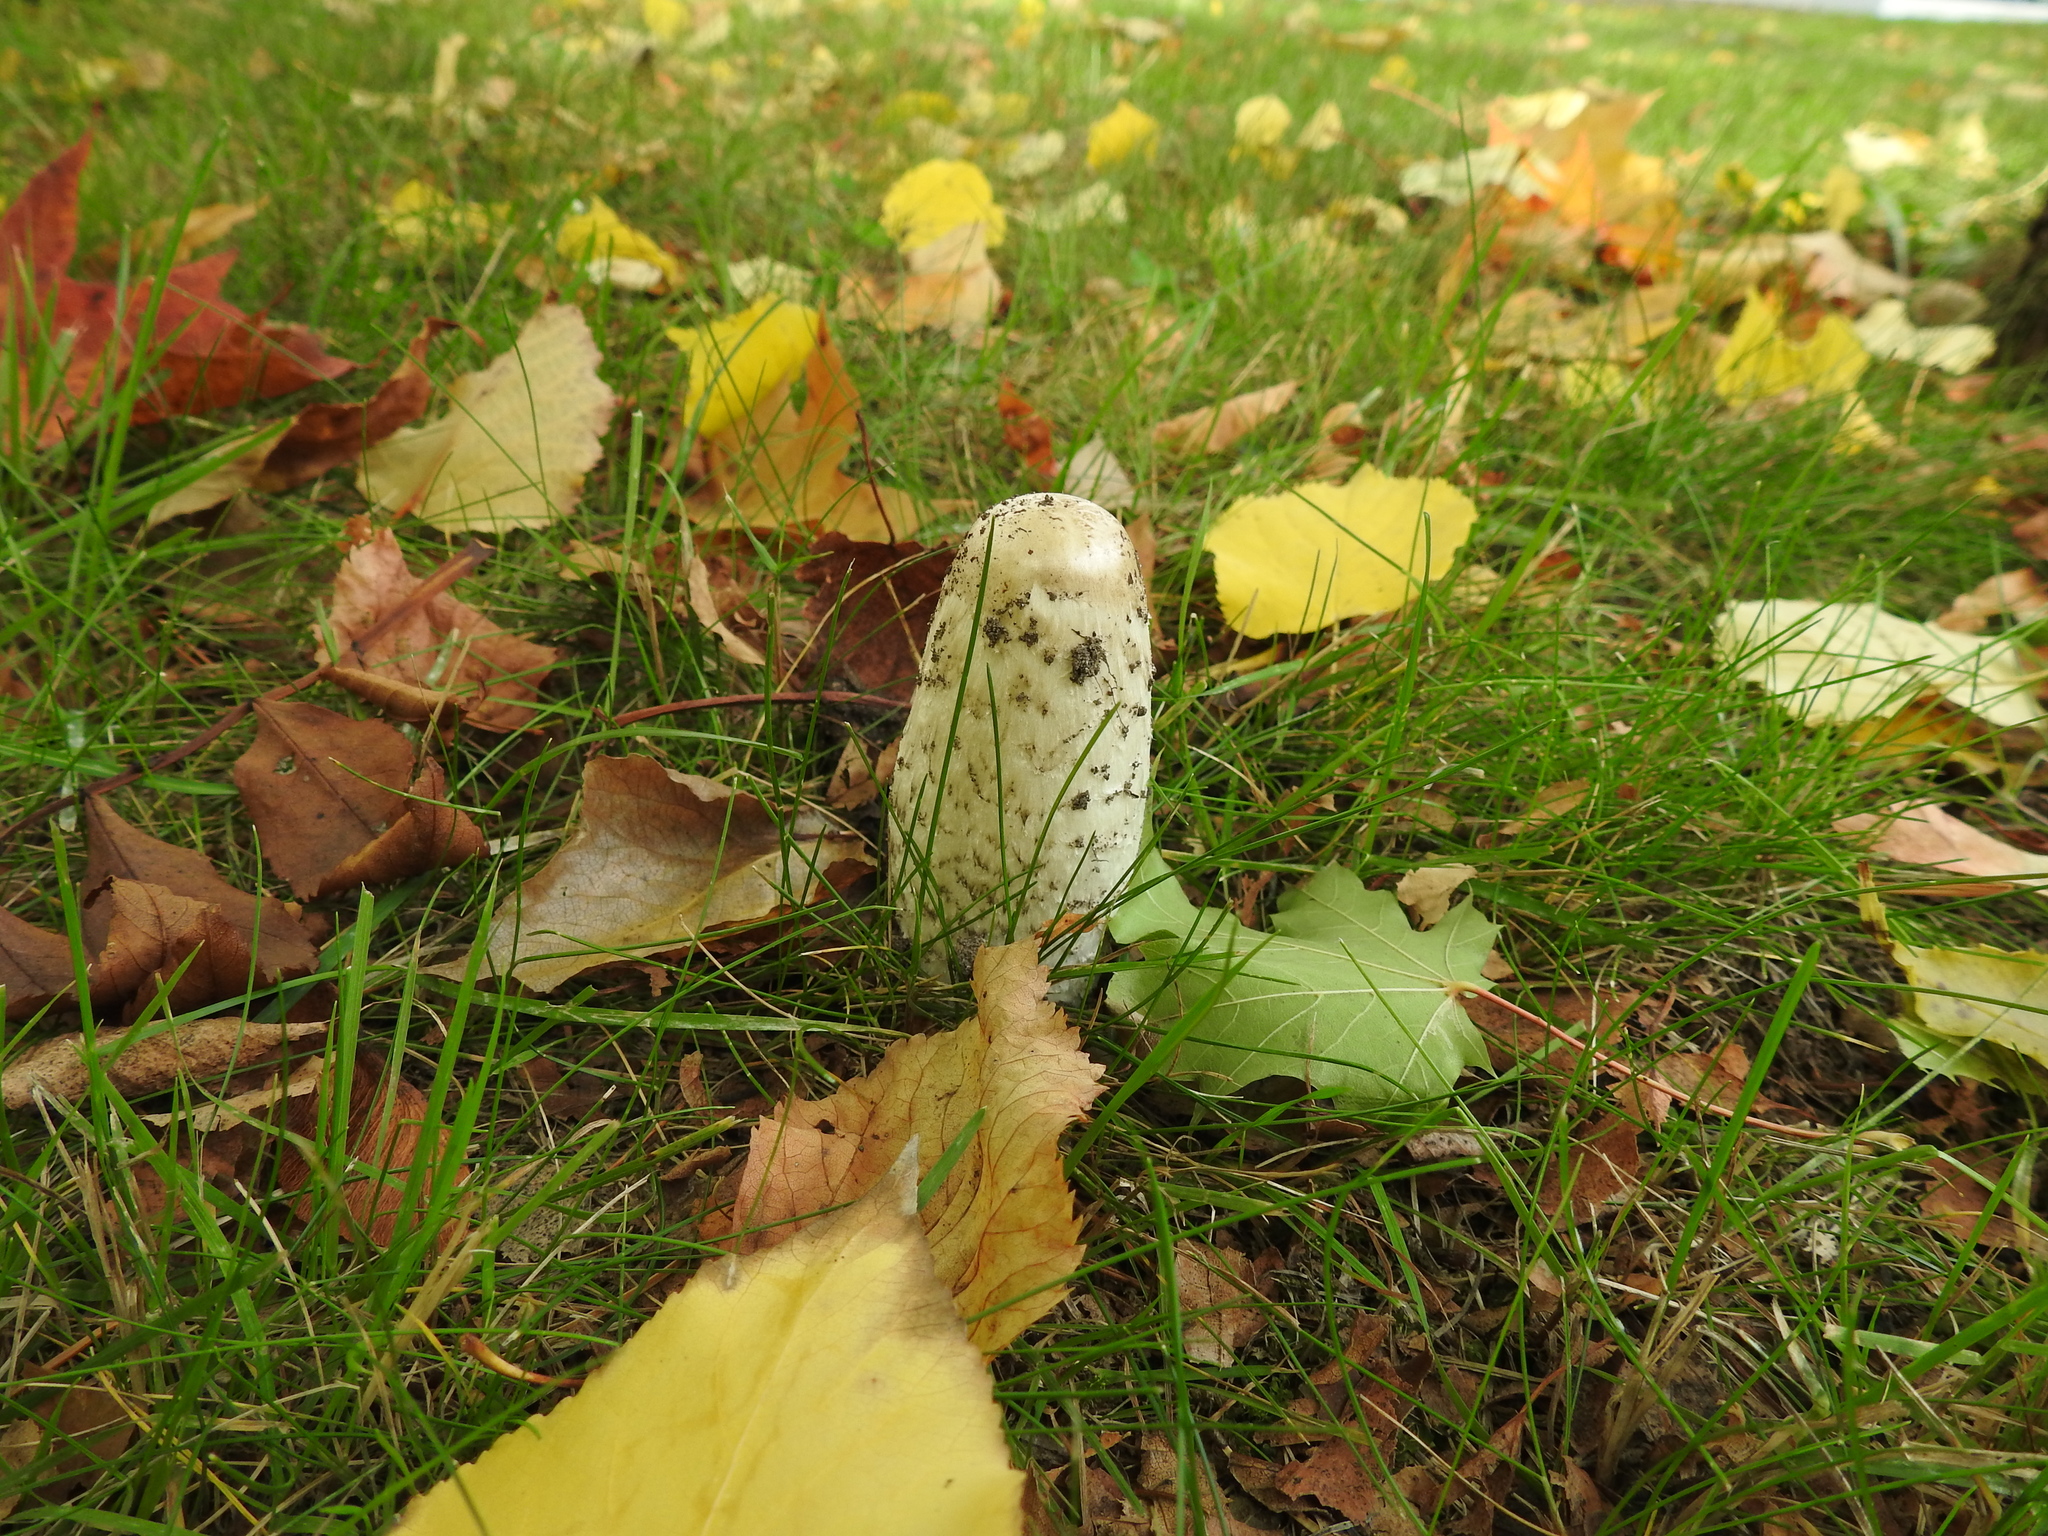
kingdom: Fungi
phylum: Basidiomycota
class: Agaricomycetes
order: Agaricales
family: Agaricaceae
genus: Coprinus
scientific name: Coprinus comatus
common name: Lawyer's wig
